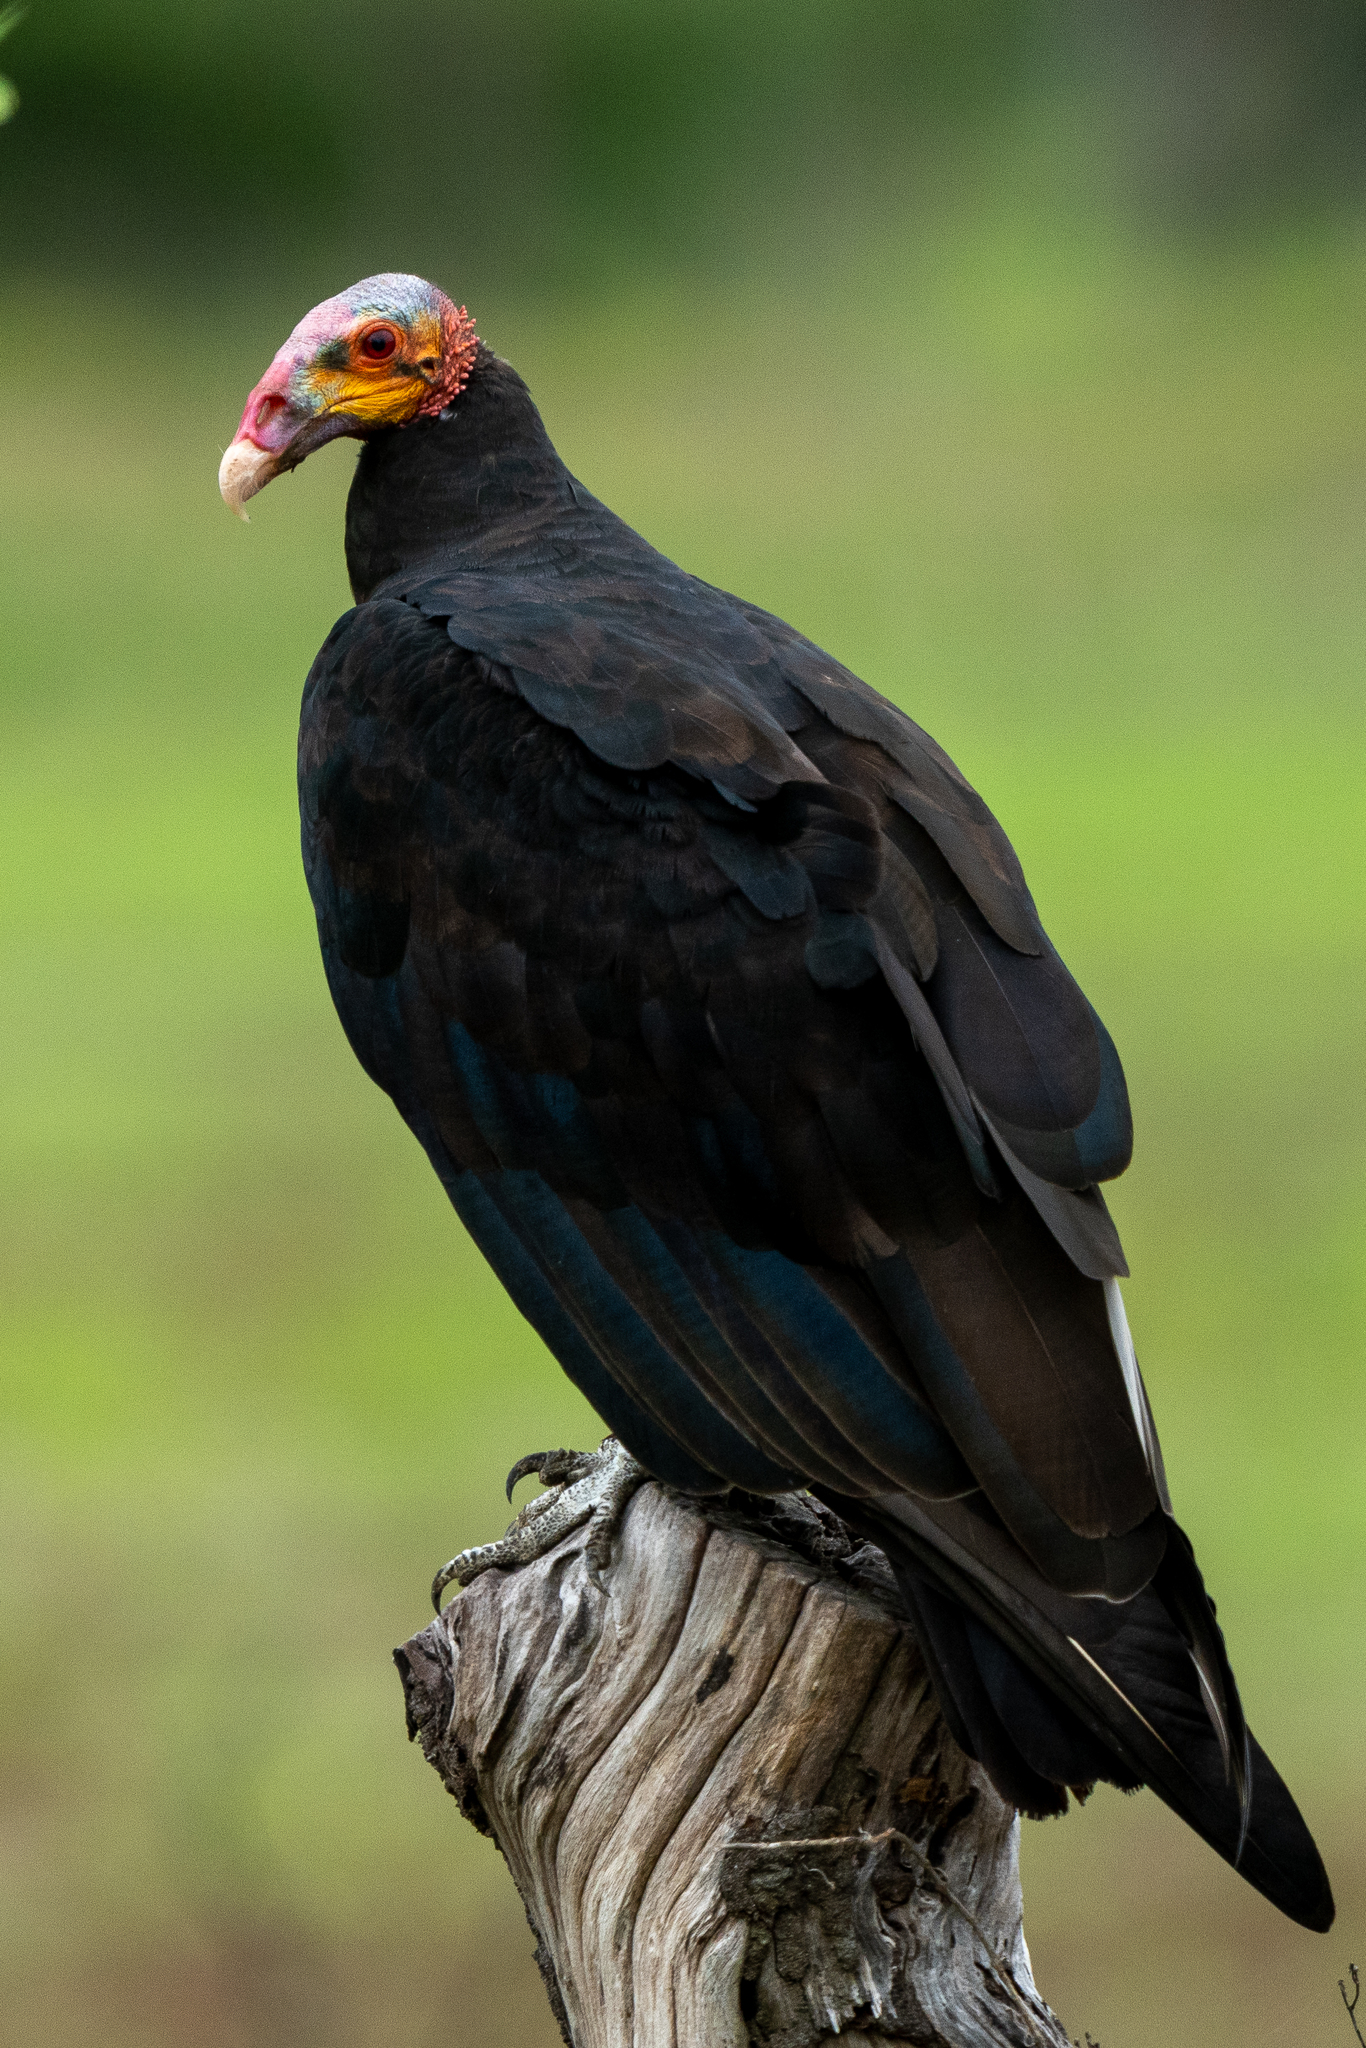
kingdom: Animalia
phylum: Chordata
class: Aves
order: Accipitriformes
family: Cathartidae
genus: Cathartes
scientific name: Cathartes burrovianus
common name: Lesser yellow-headed vulture
